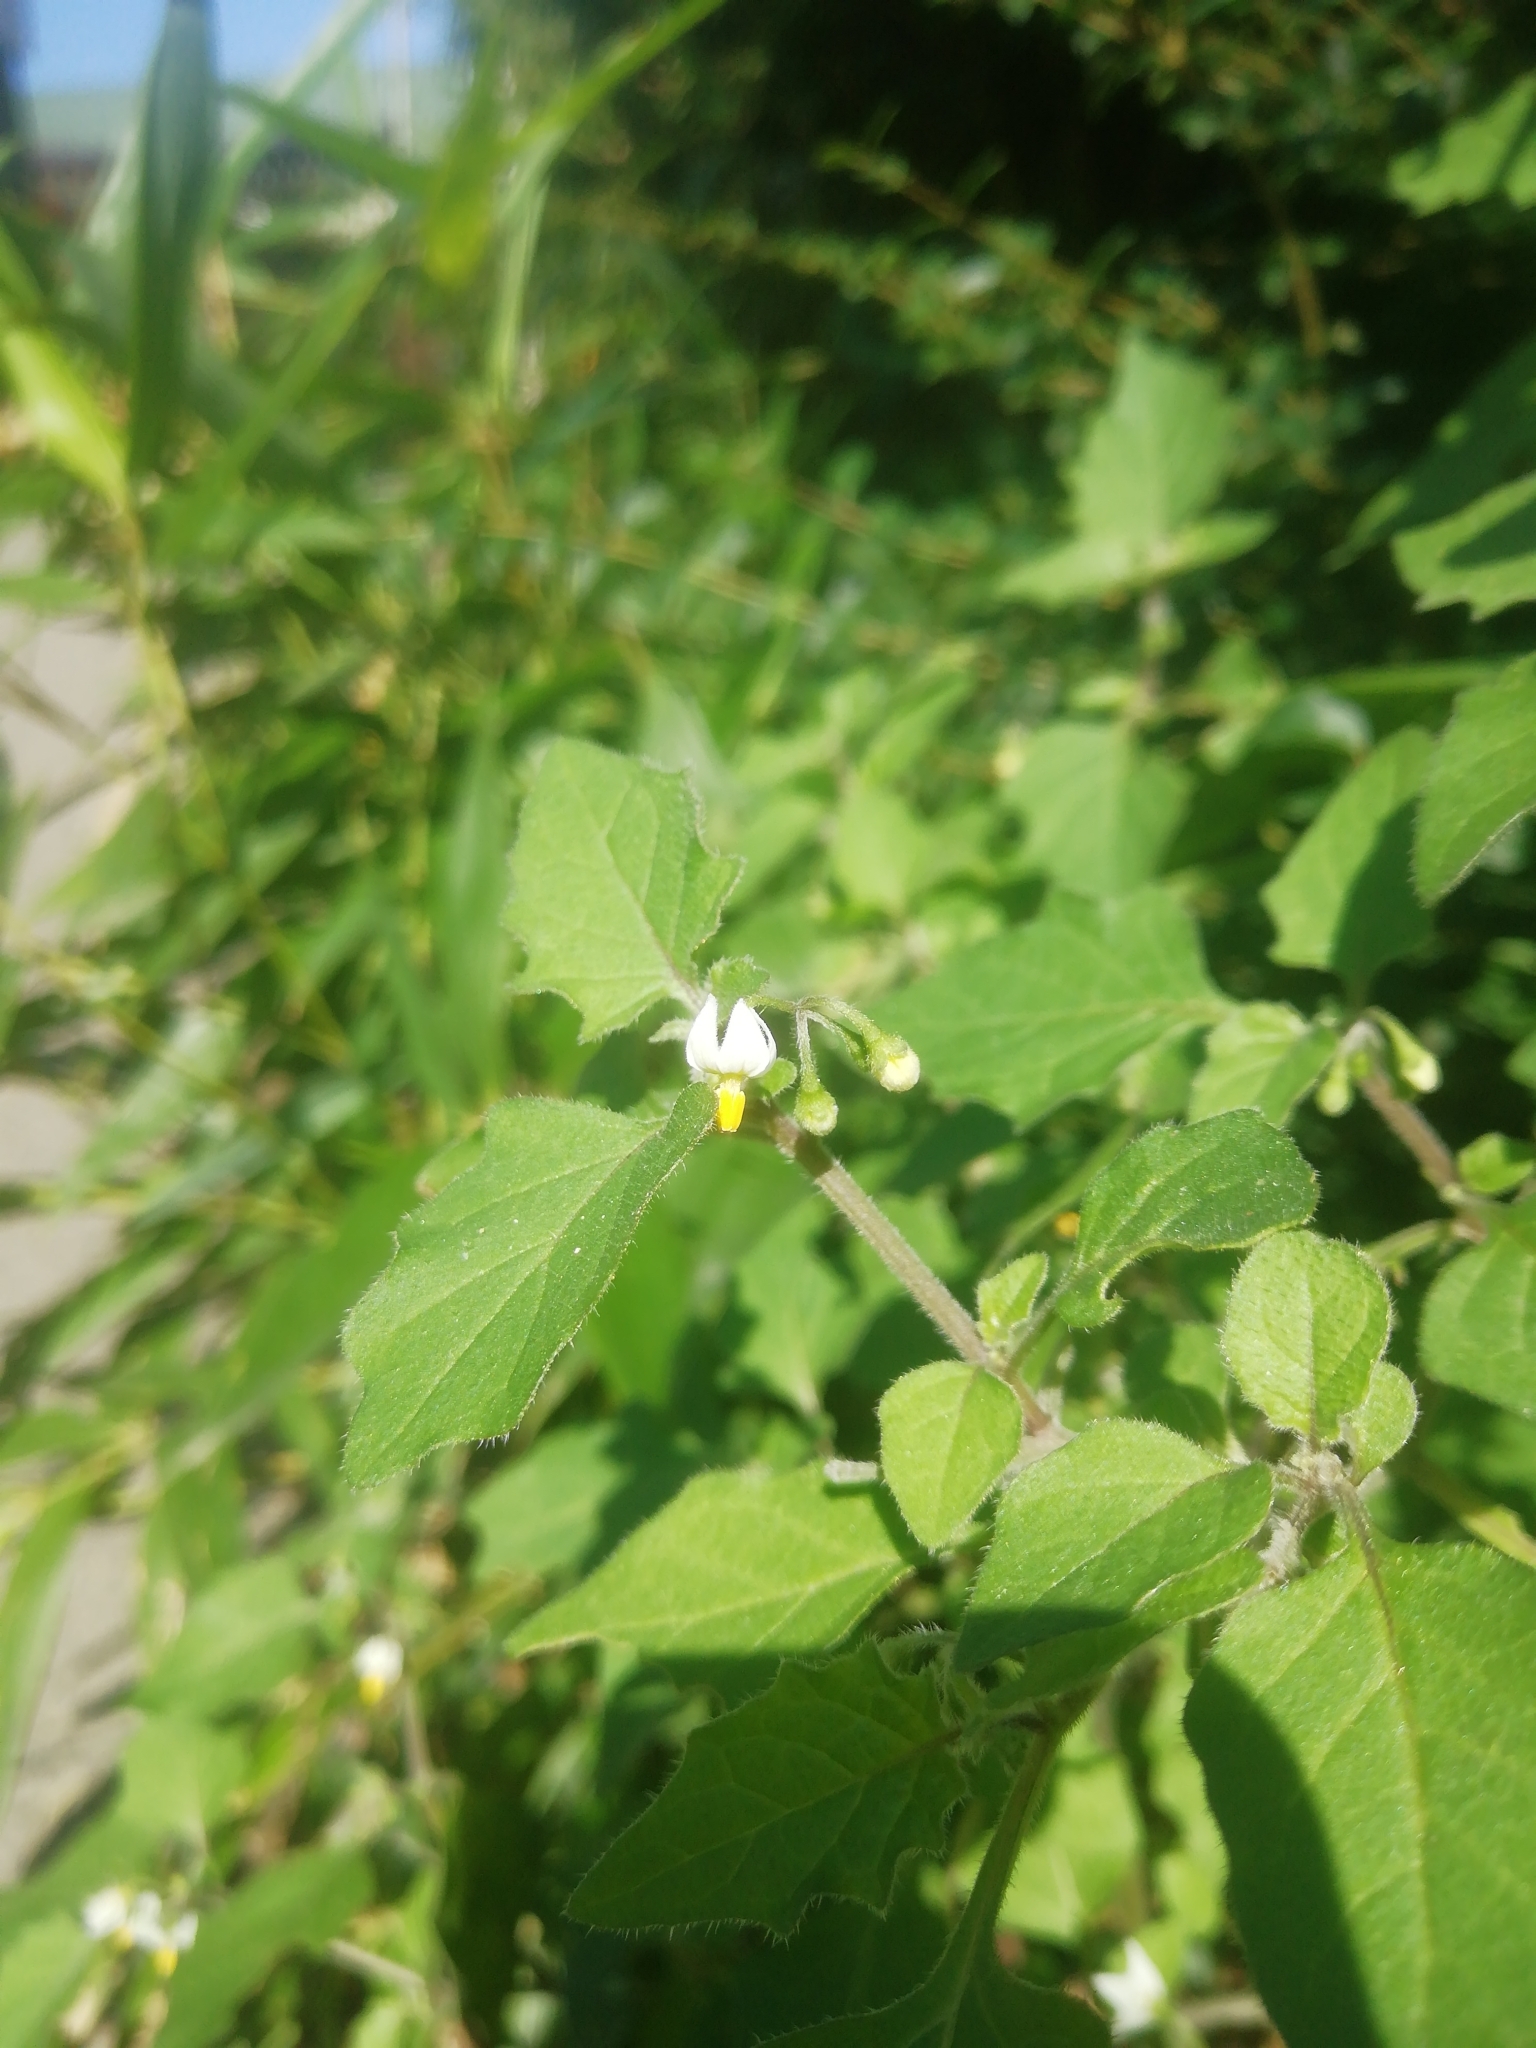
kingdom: Plantae
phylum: Tracheophyta
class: Magnoliopsida
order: Solanales
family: Solanaceae
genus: Solanum
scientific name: Solanum nigrum
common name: Black nightshade
